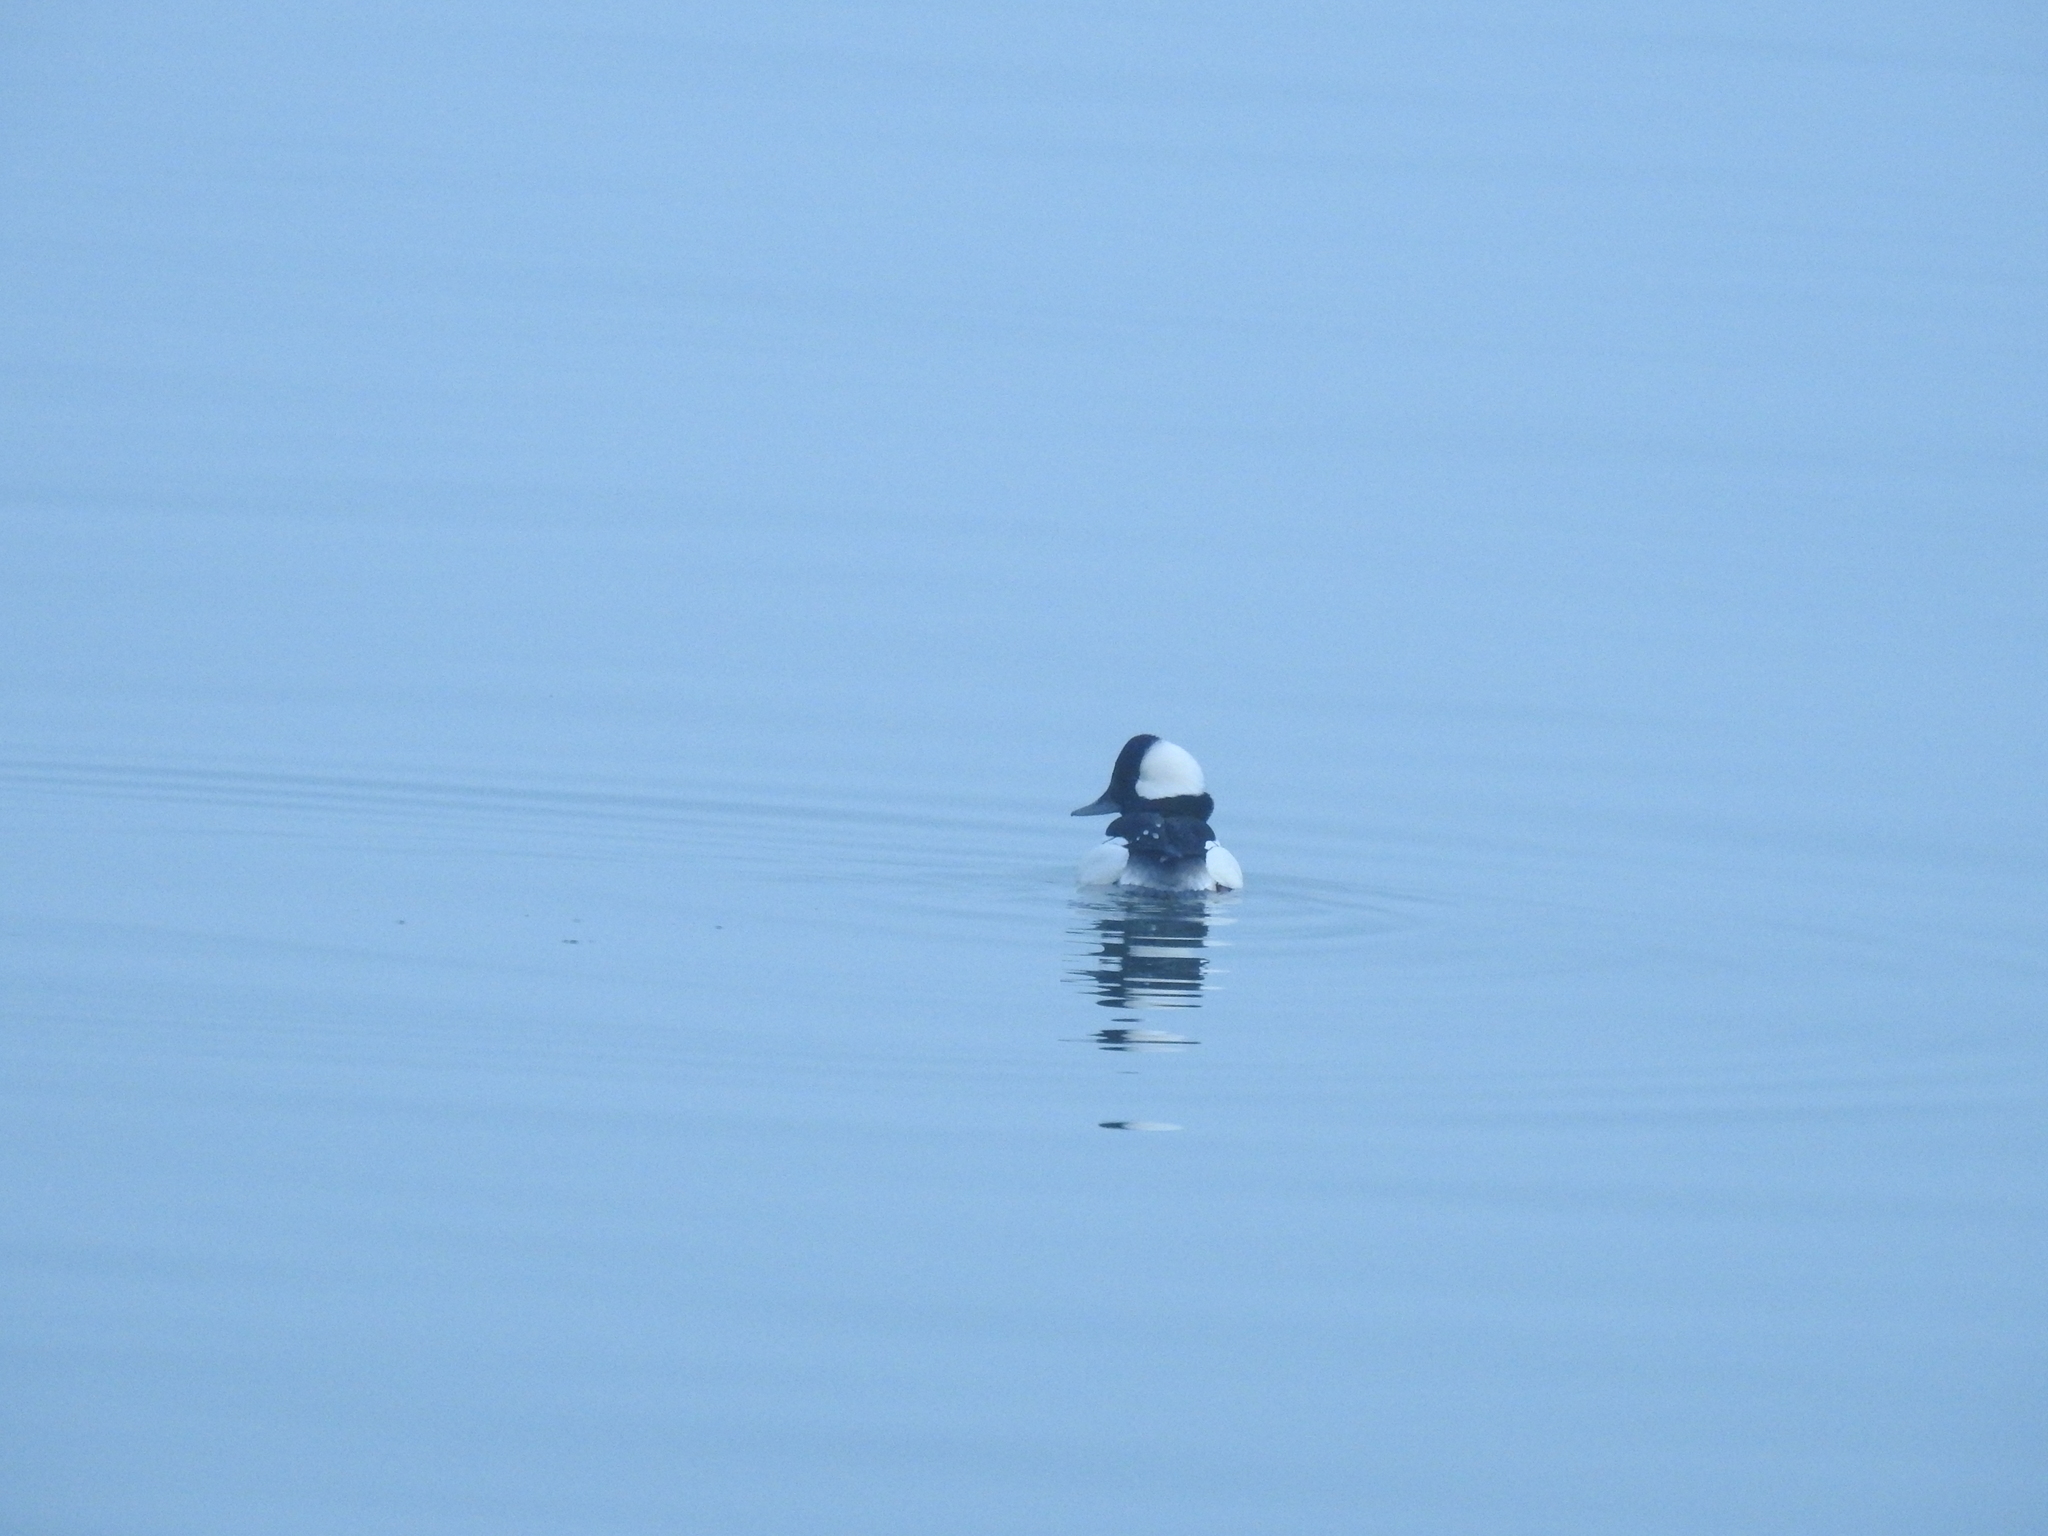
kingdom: Animalia
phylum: Chordata
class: Aves
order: Anseriformes
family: Anatidae
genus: Bucephala
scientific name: Bucephala albeola
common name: Bufflehead
